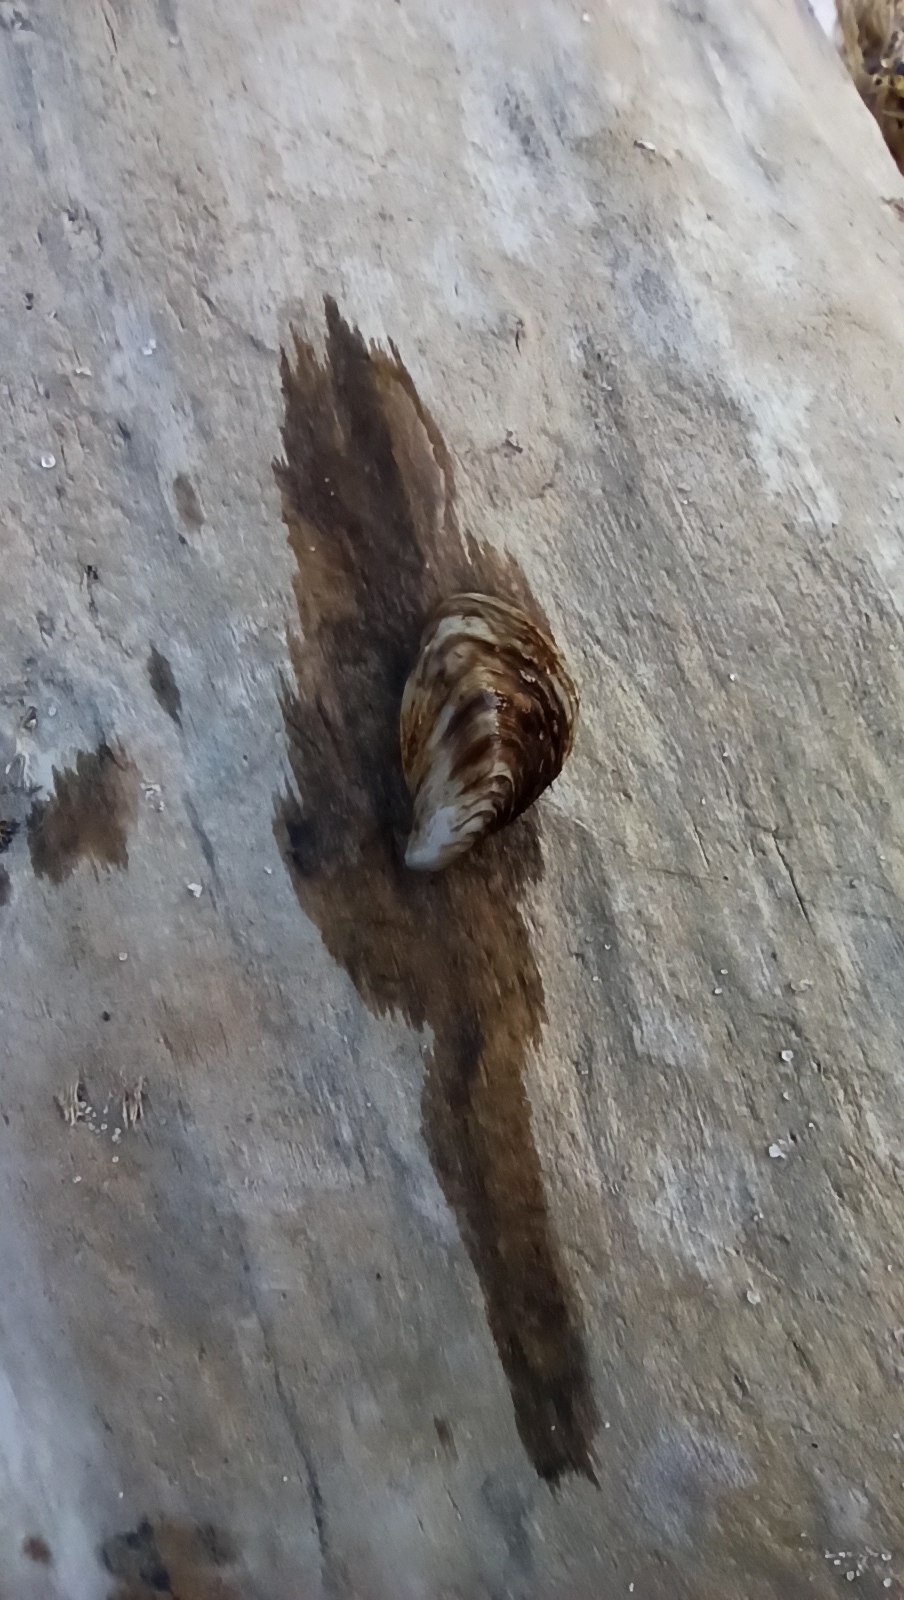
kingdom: Animalia
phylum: Mollusca
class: Bivalvia
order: Myida
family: Dreissenidae
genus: Dreissena
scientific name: Dreissena polymorpha
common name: Zebra mussel
